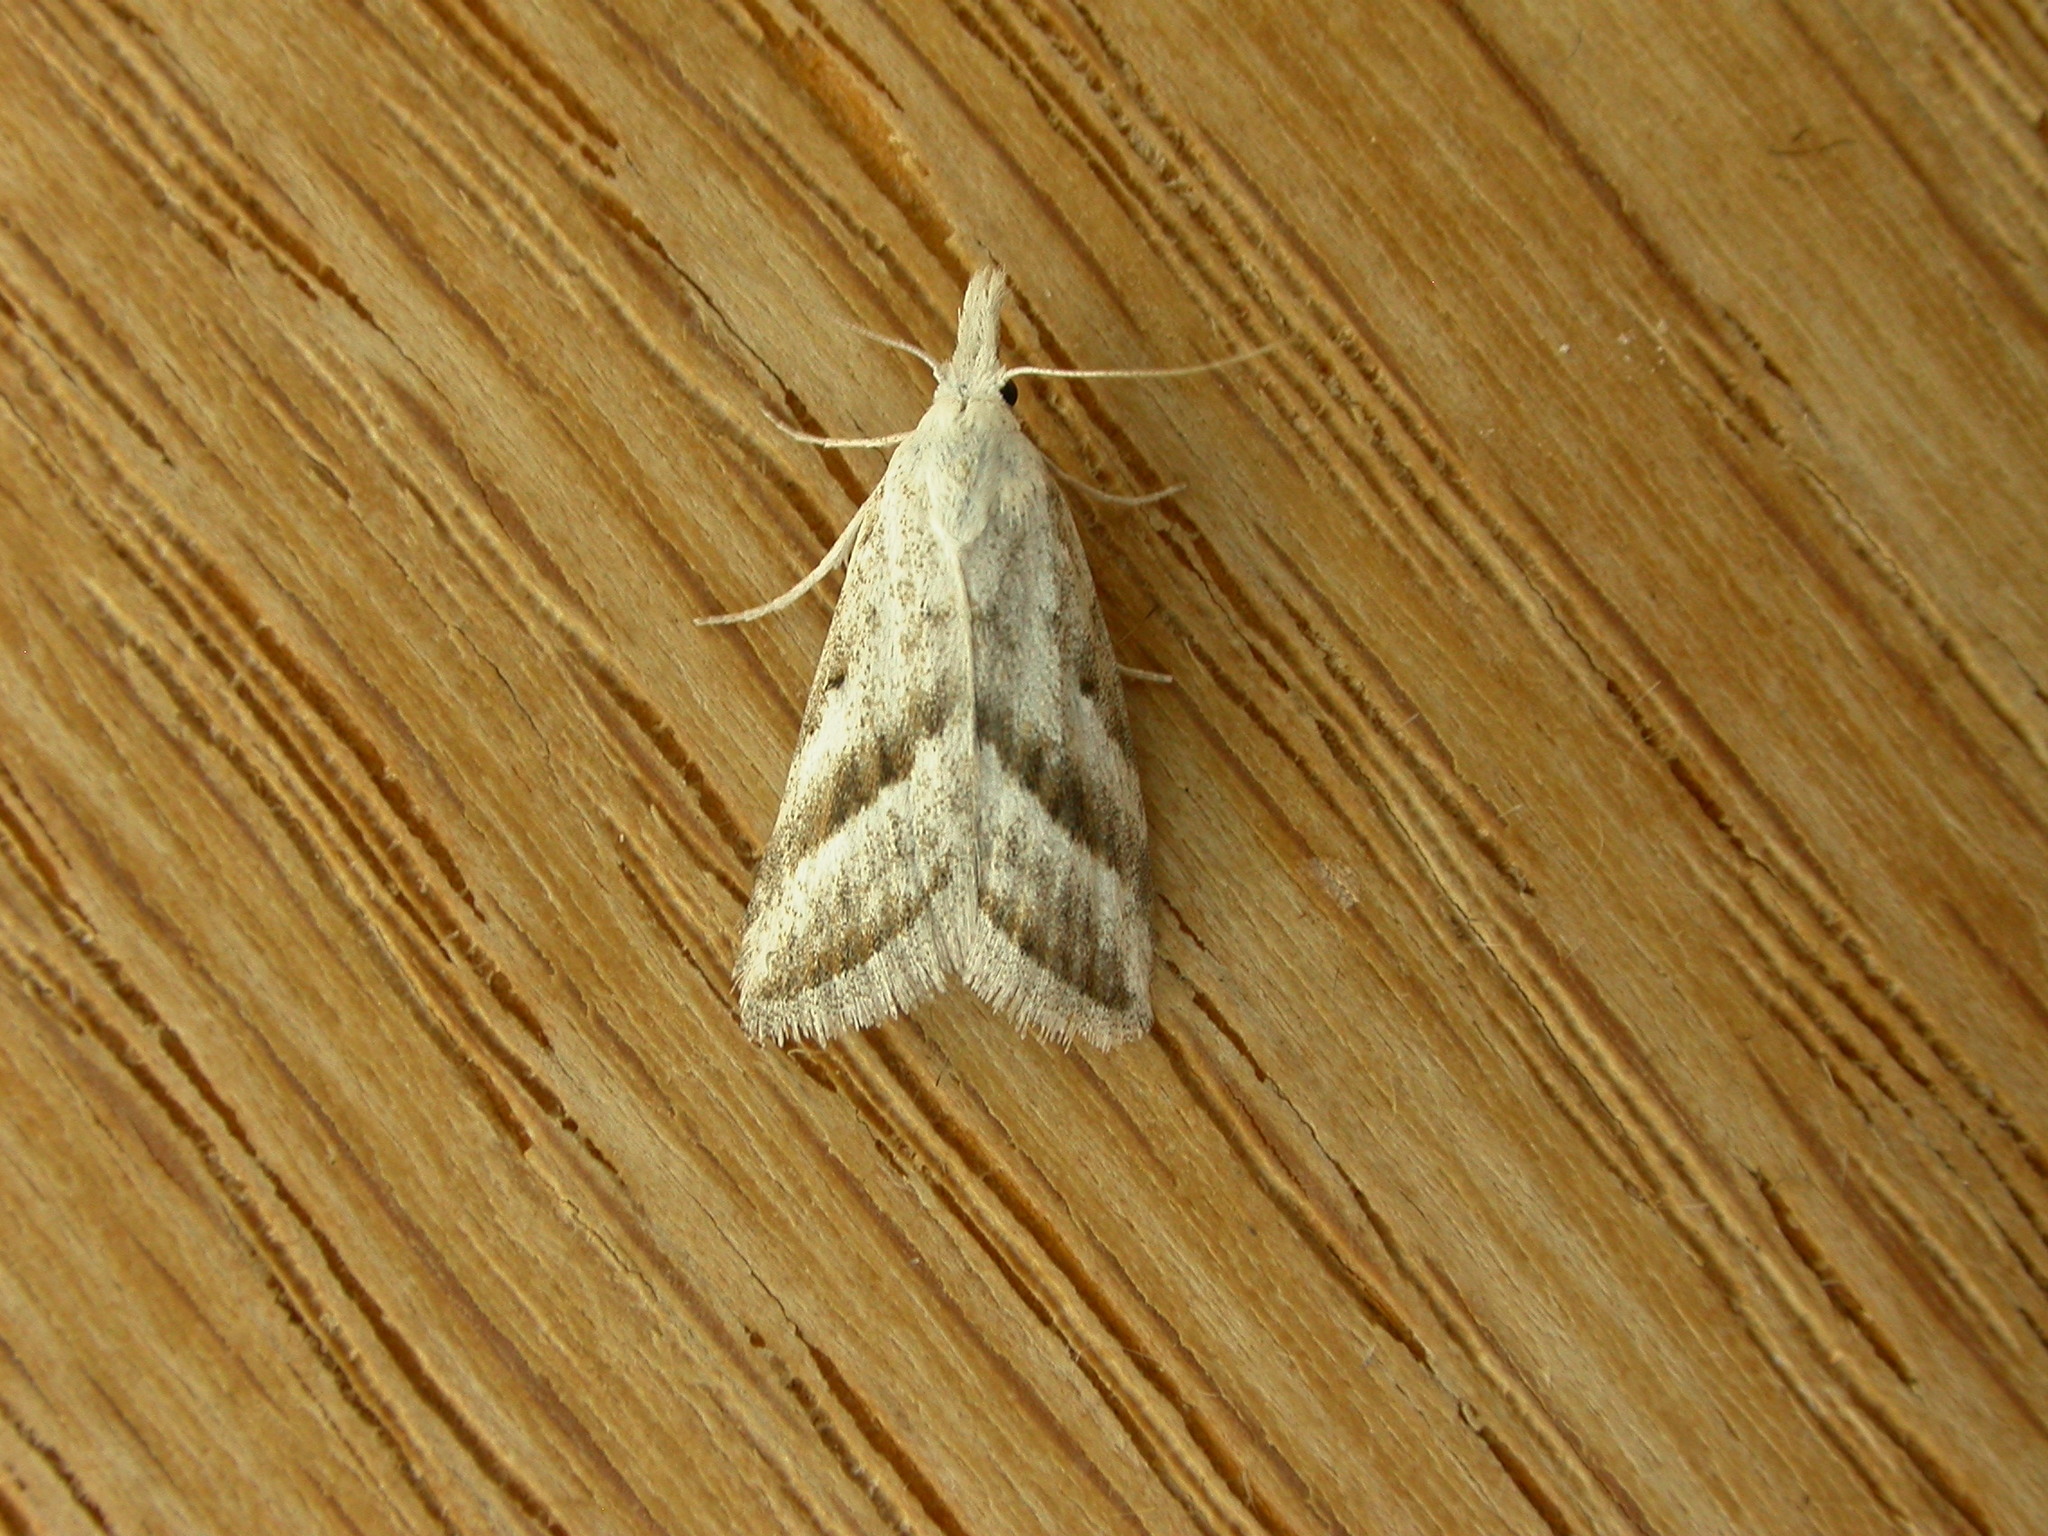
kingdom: Animalia
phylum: Arthropoda
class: Insecta
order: Lepidoptera
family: Nolidae
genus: Nola
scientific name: Nola paromoea
